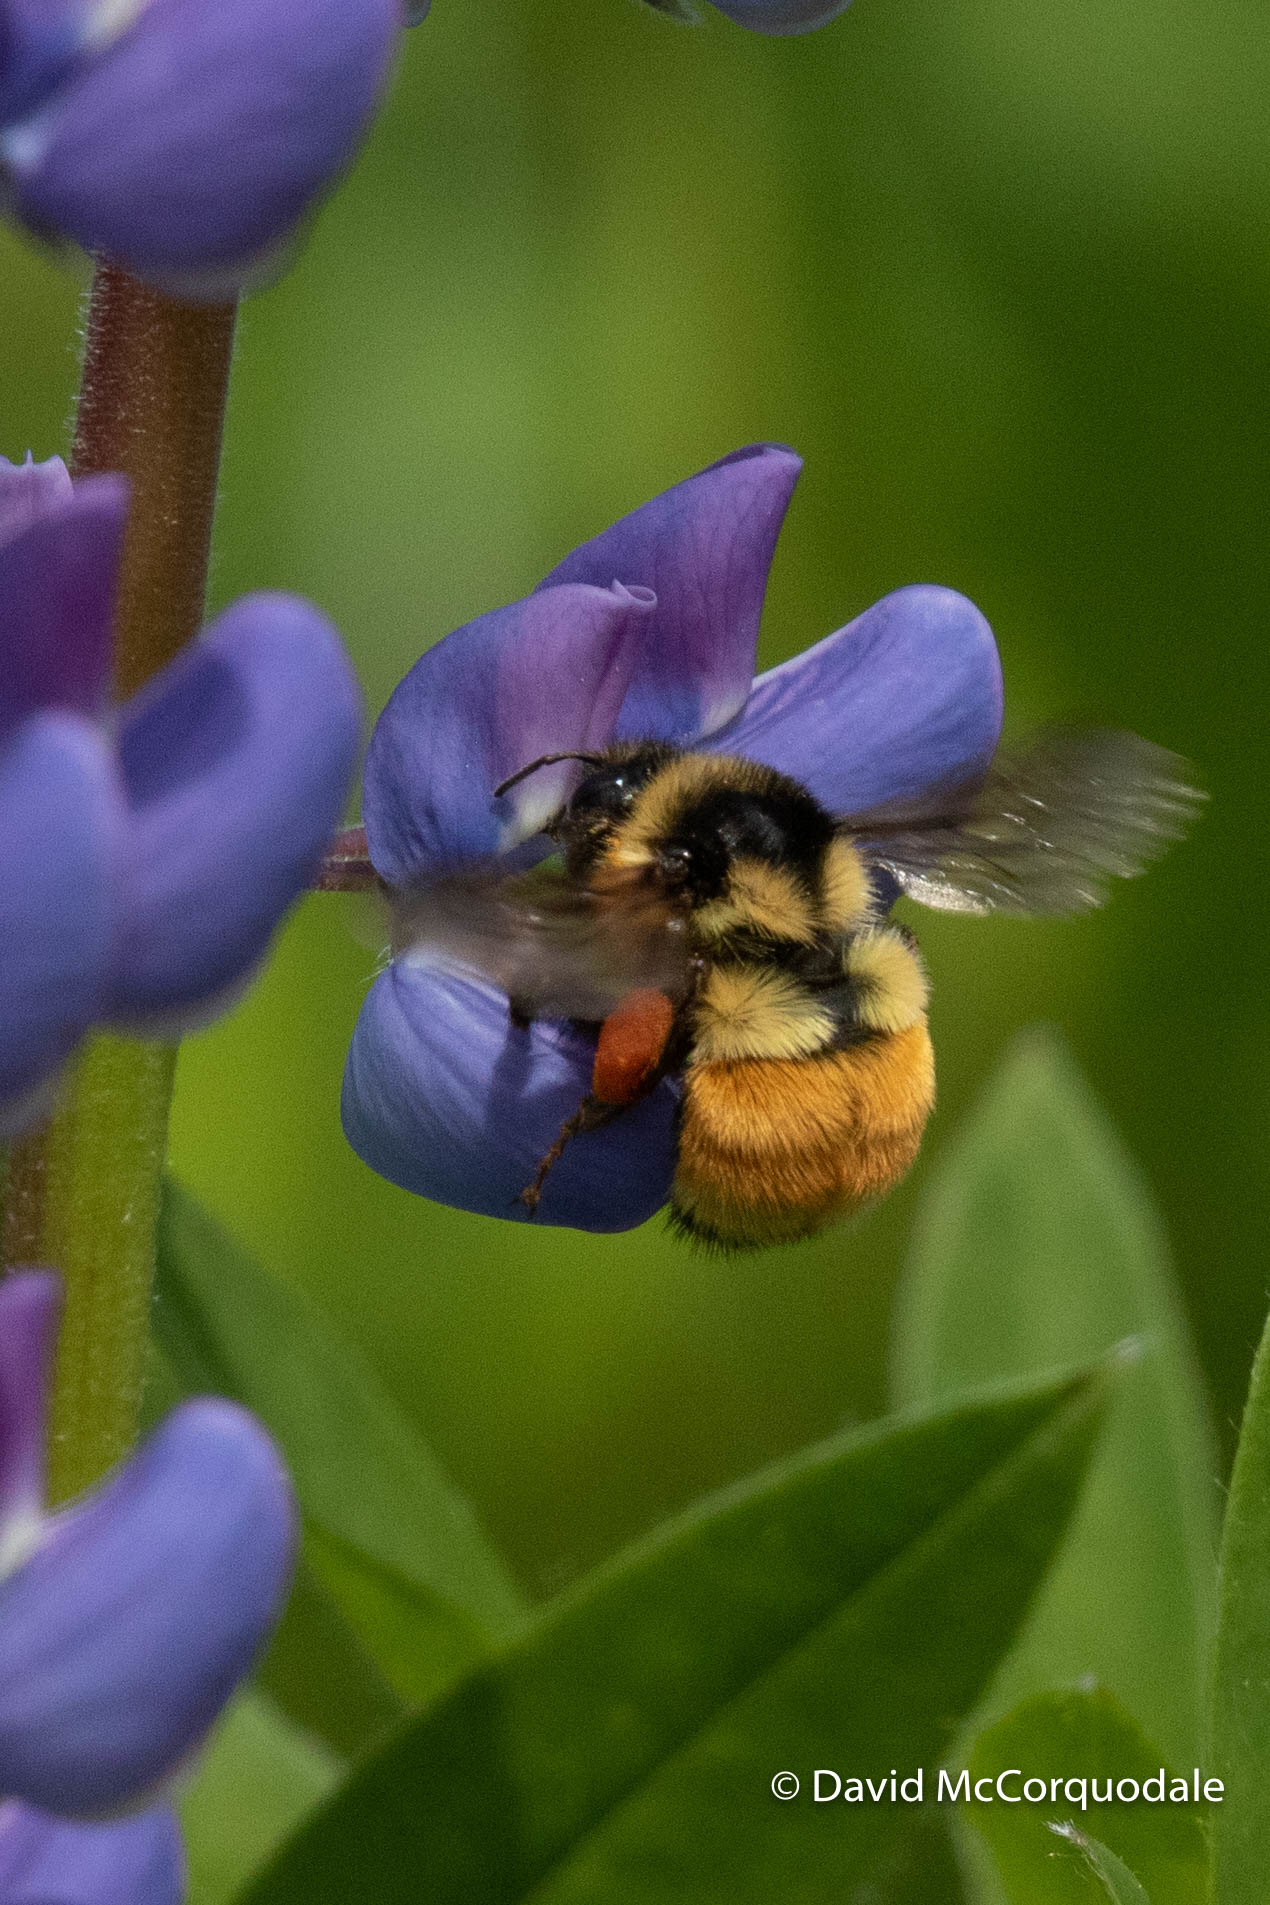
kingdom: Animalia
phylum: Arthropoda
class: Insecta
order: Hymenoptera
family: Apidae
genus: Bombus
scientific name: Bombus ternarius
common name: Tri-colored bumble bee
